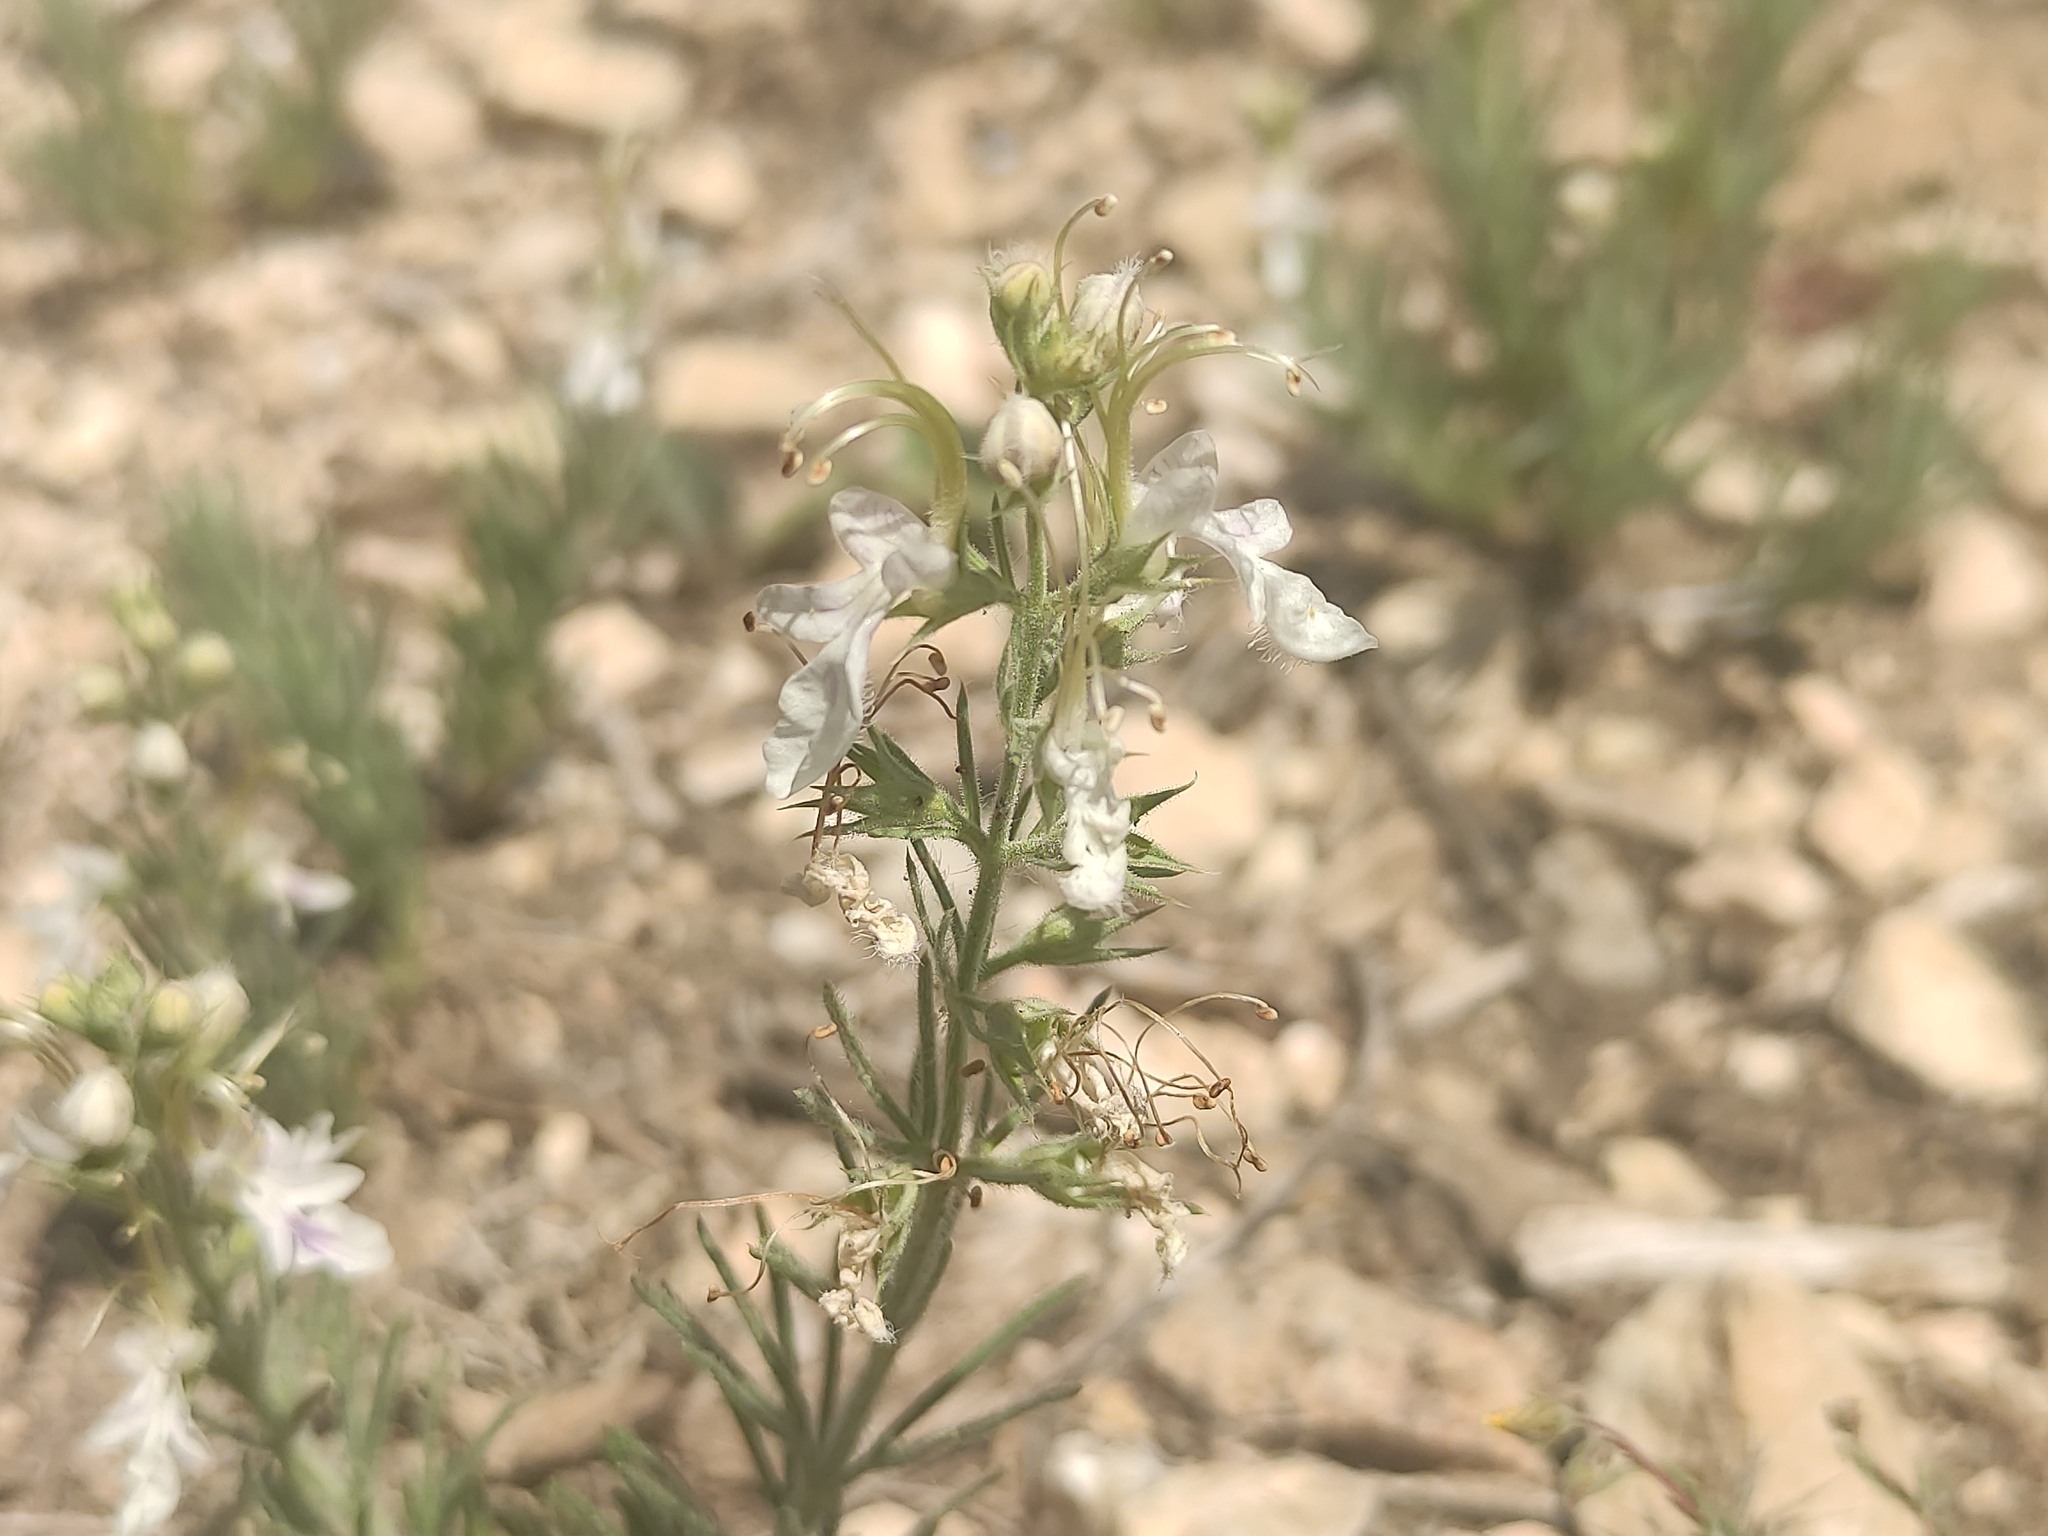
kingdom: Plantae
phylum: Tracheophyta
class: Magnoliopsida
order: Lamiales
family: Lamiaceae
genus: Teucrium
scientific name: Teucrium pseudochamaepitys
